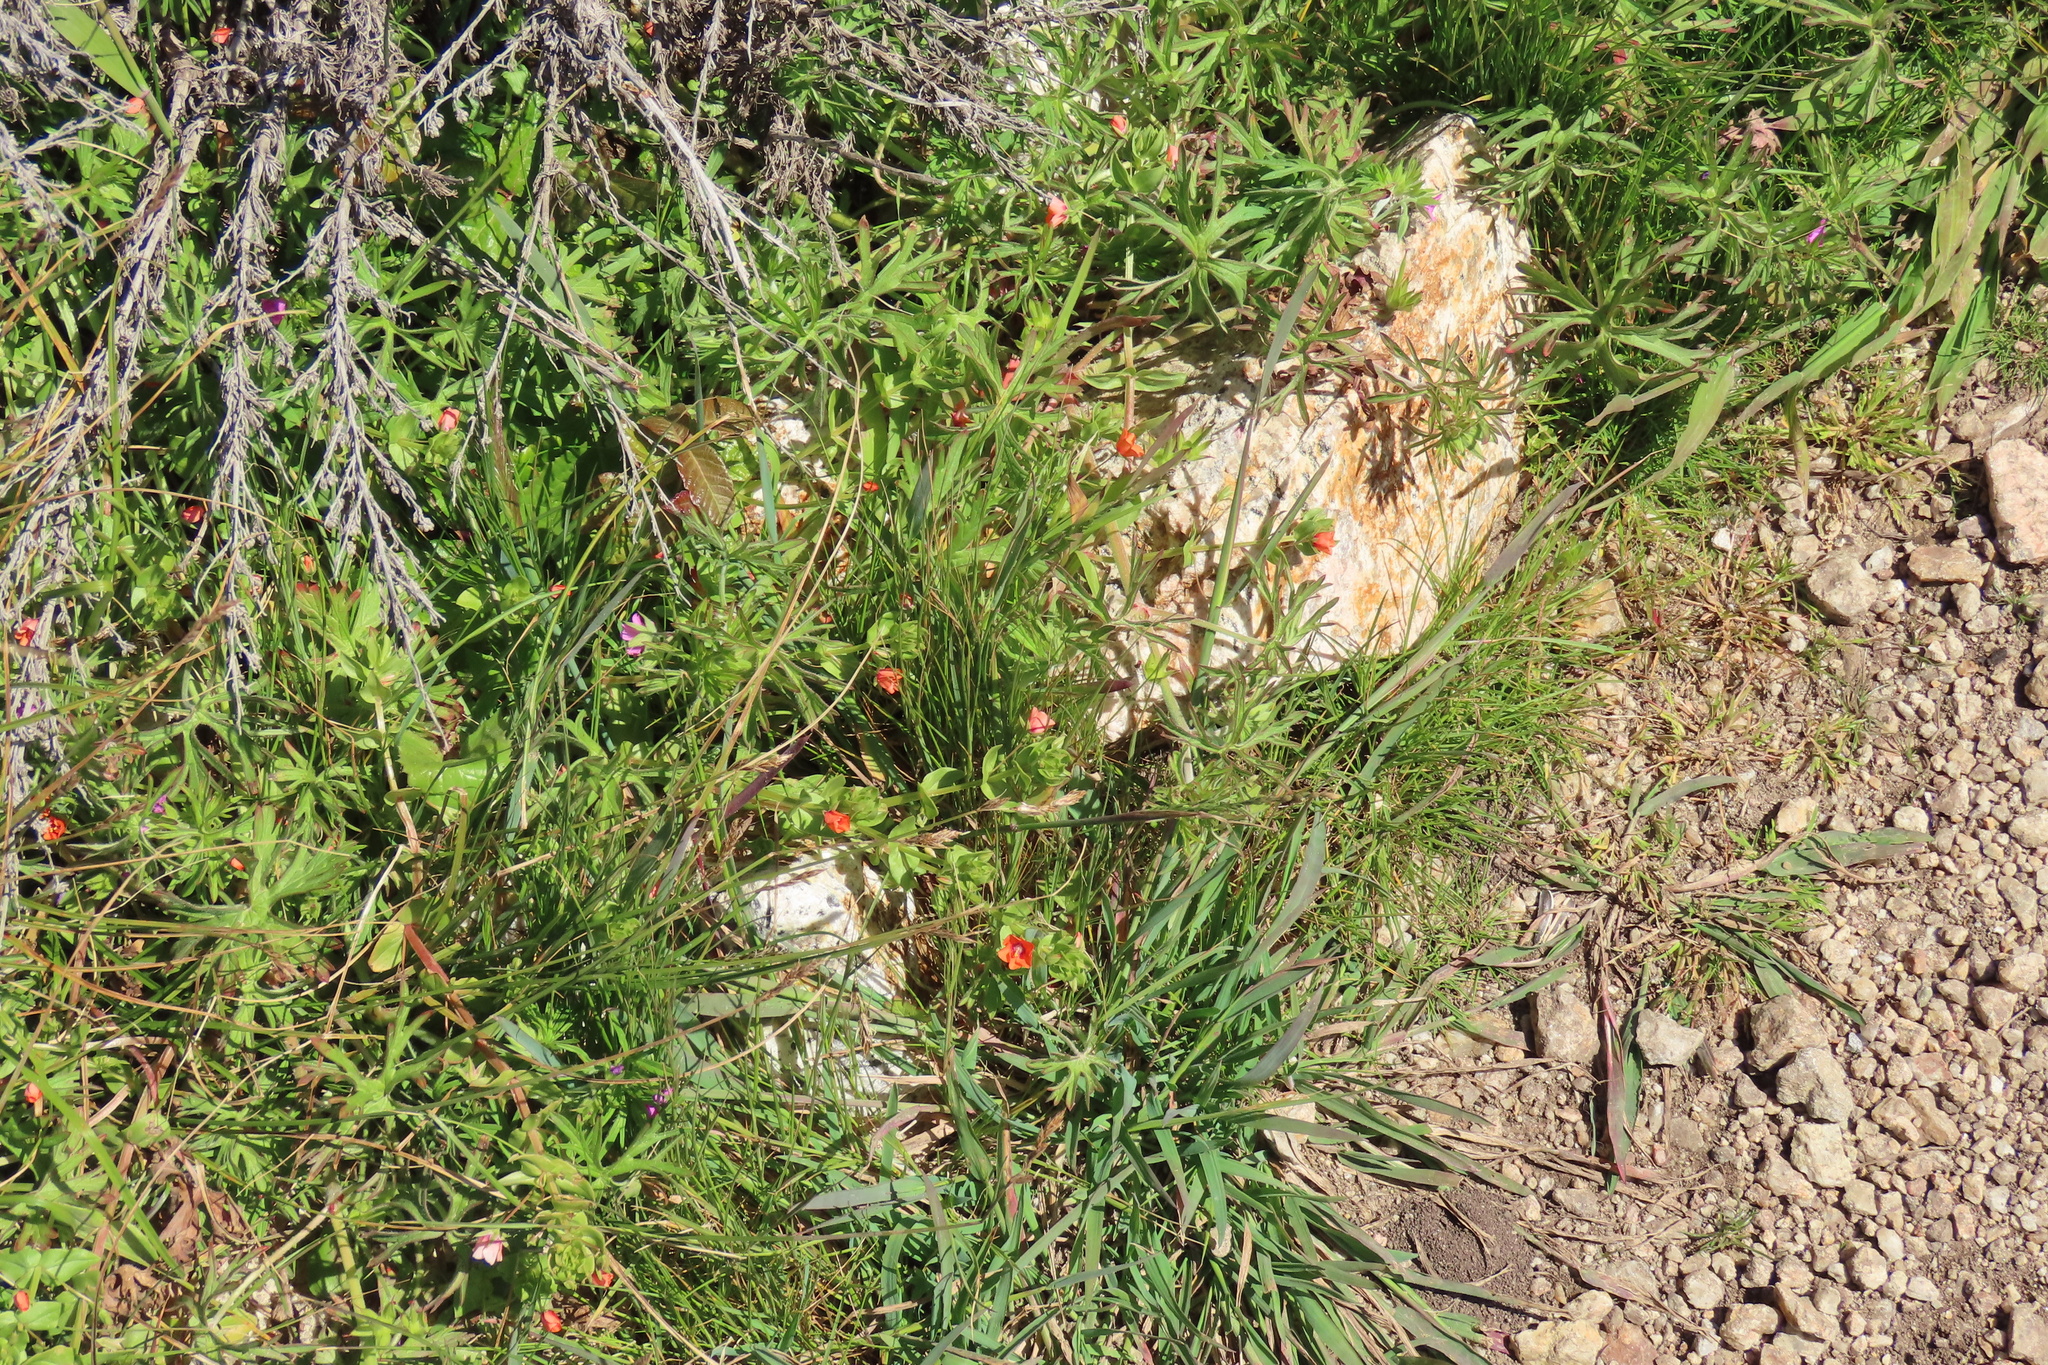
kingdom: Plantae
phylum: Tracheophyta
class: Magnoliopsida
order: Ericales
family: Primulaceae
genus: Lysimachia
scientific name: Lysimachia arvensis
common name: Scarlet pimpernel
